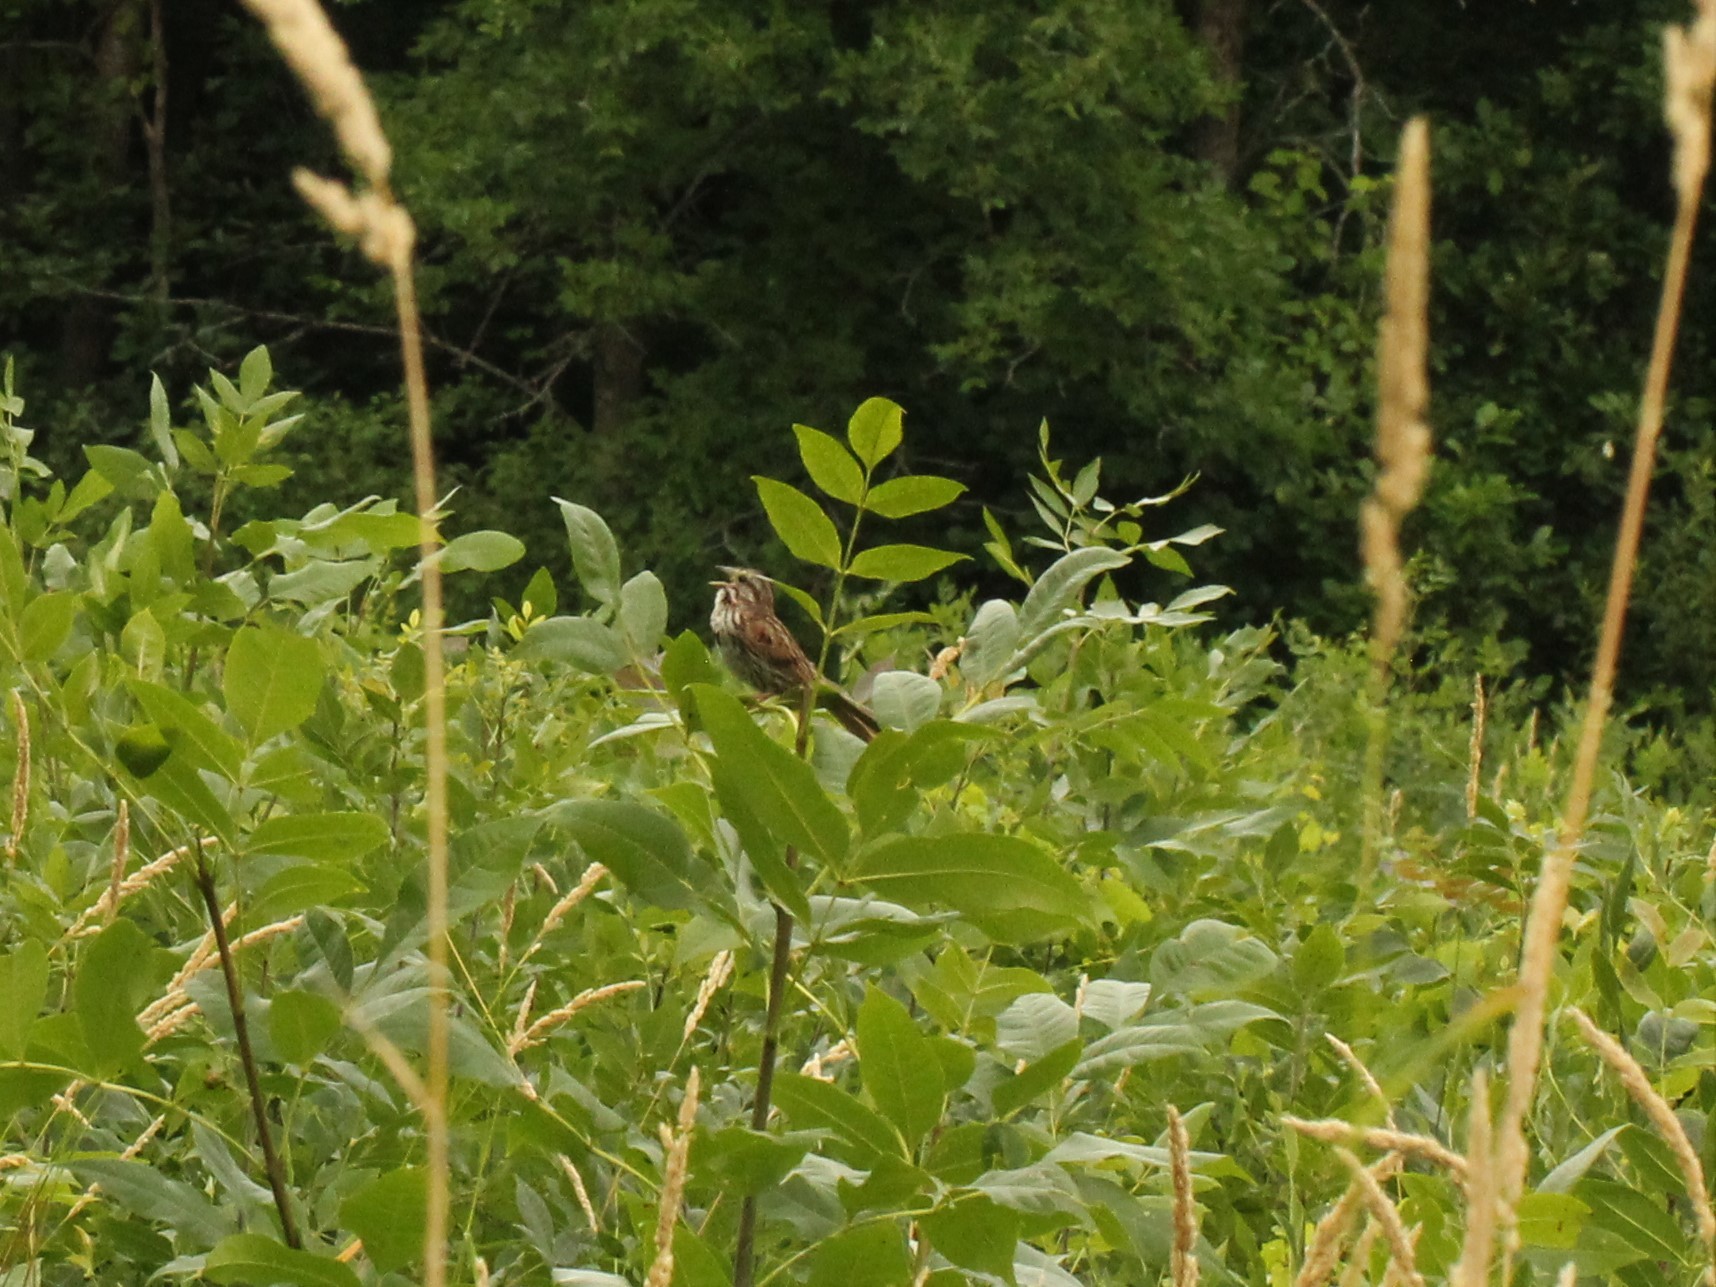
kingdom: Animalia
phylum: Chordata
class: Aves
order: Passeriformes
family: Passerellidae
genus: Melospiza
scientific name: Melospiza melodia
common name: Song sparrow
